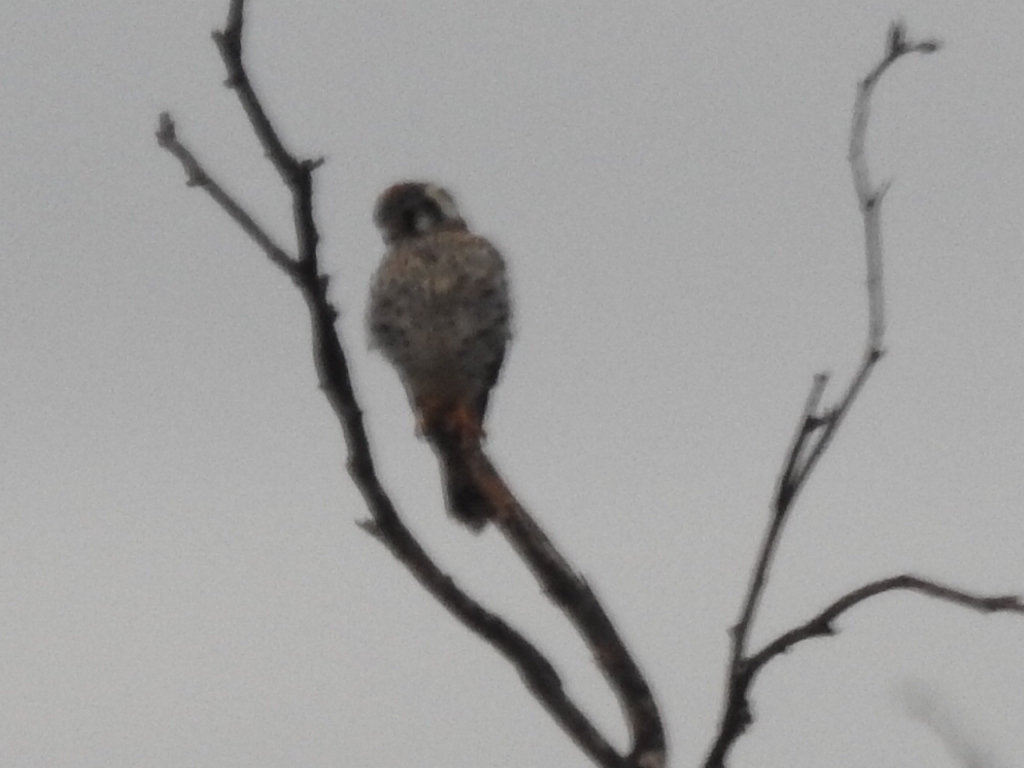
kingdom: Animalia
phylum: Chordata
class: Aves
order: Falconiformes
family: Falconidae
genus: Falco
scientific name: Falco sparverius
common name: American kestrel
